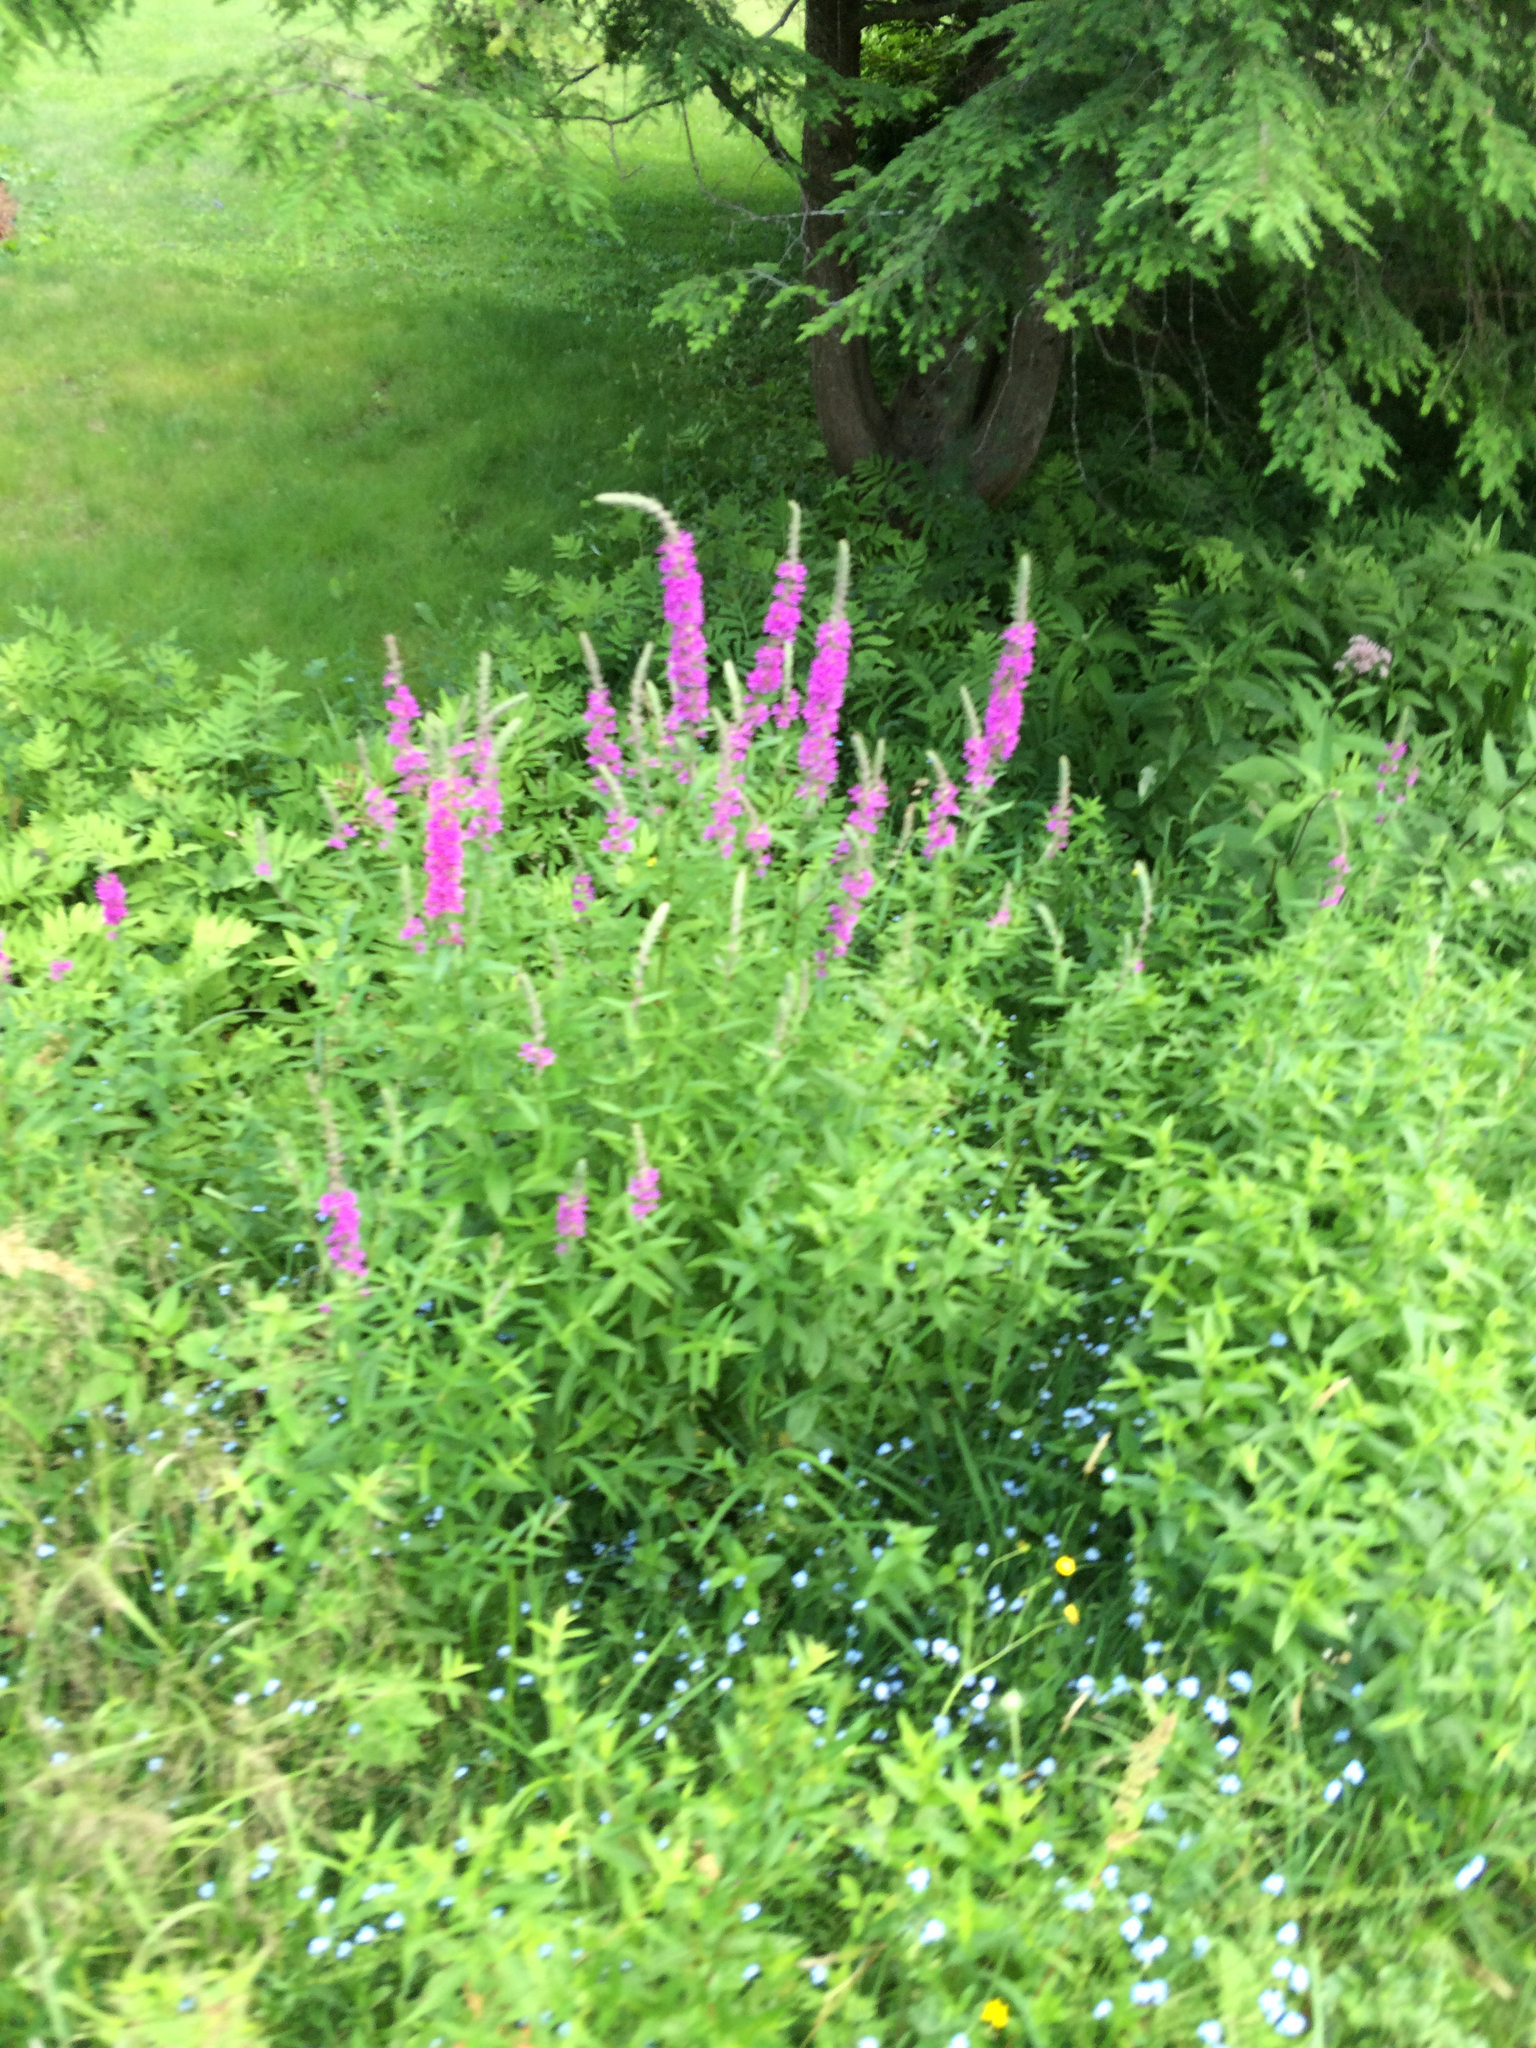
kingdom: Plantae
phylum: Tracheophyta
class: Magnoliopsida
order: Myrtales
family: Lythraceae
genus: Lythrum
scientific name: Lythrum salicaria
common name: Purple loosestrife
